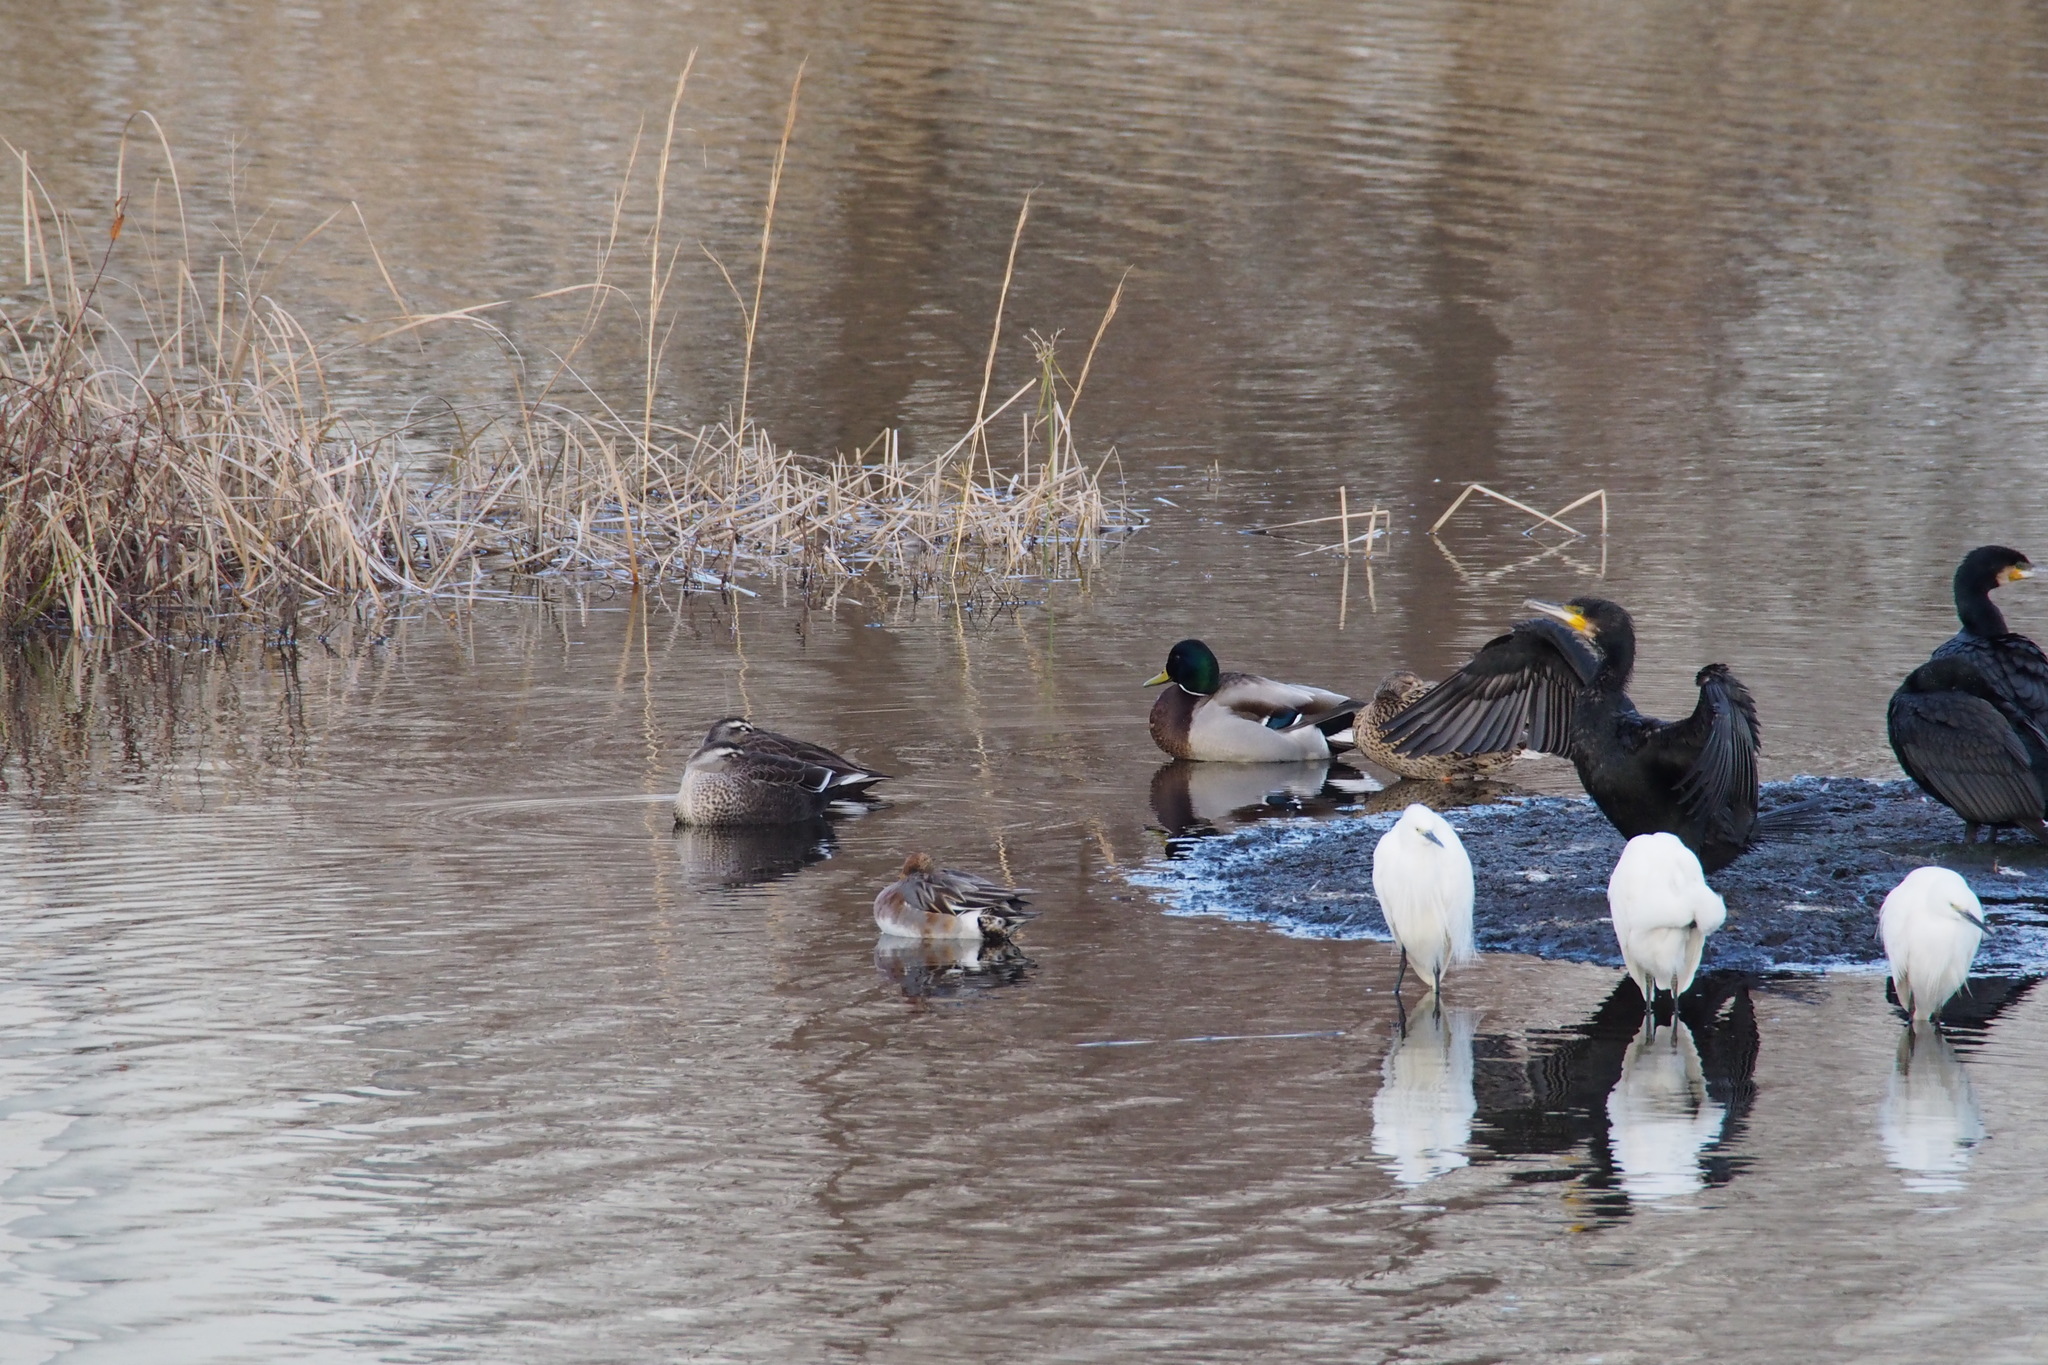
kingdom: Animalia
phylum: Chordata
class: Aves
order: Anseriformes
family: Anatidae
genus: Anas
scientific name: Anas platyrhynchos
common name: Mallard
